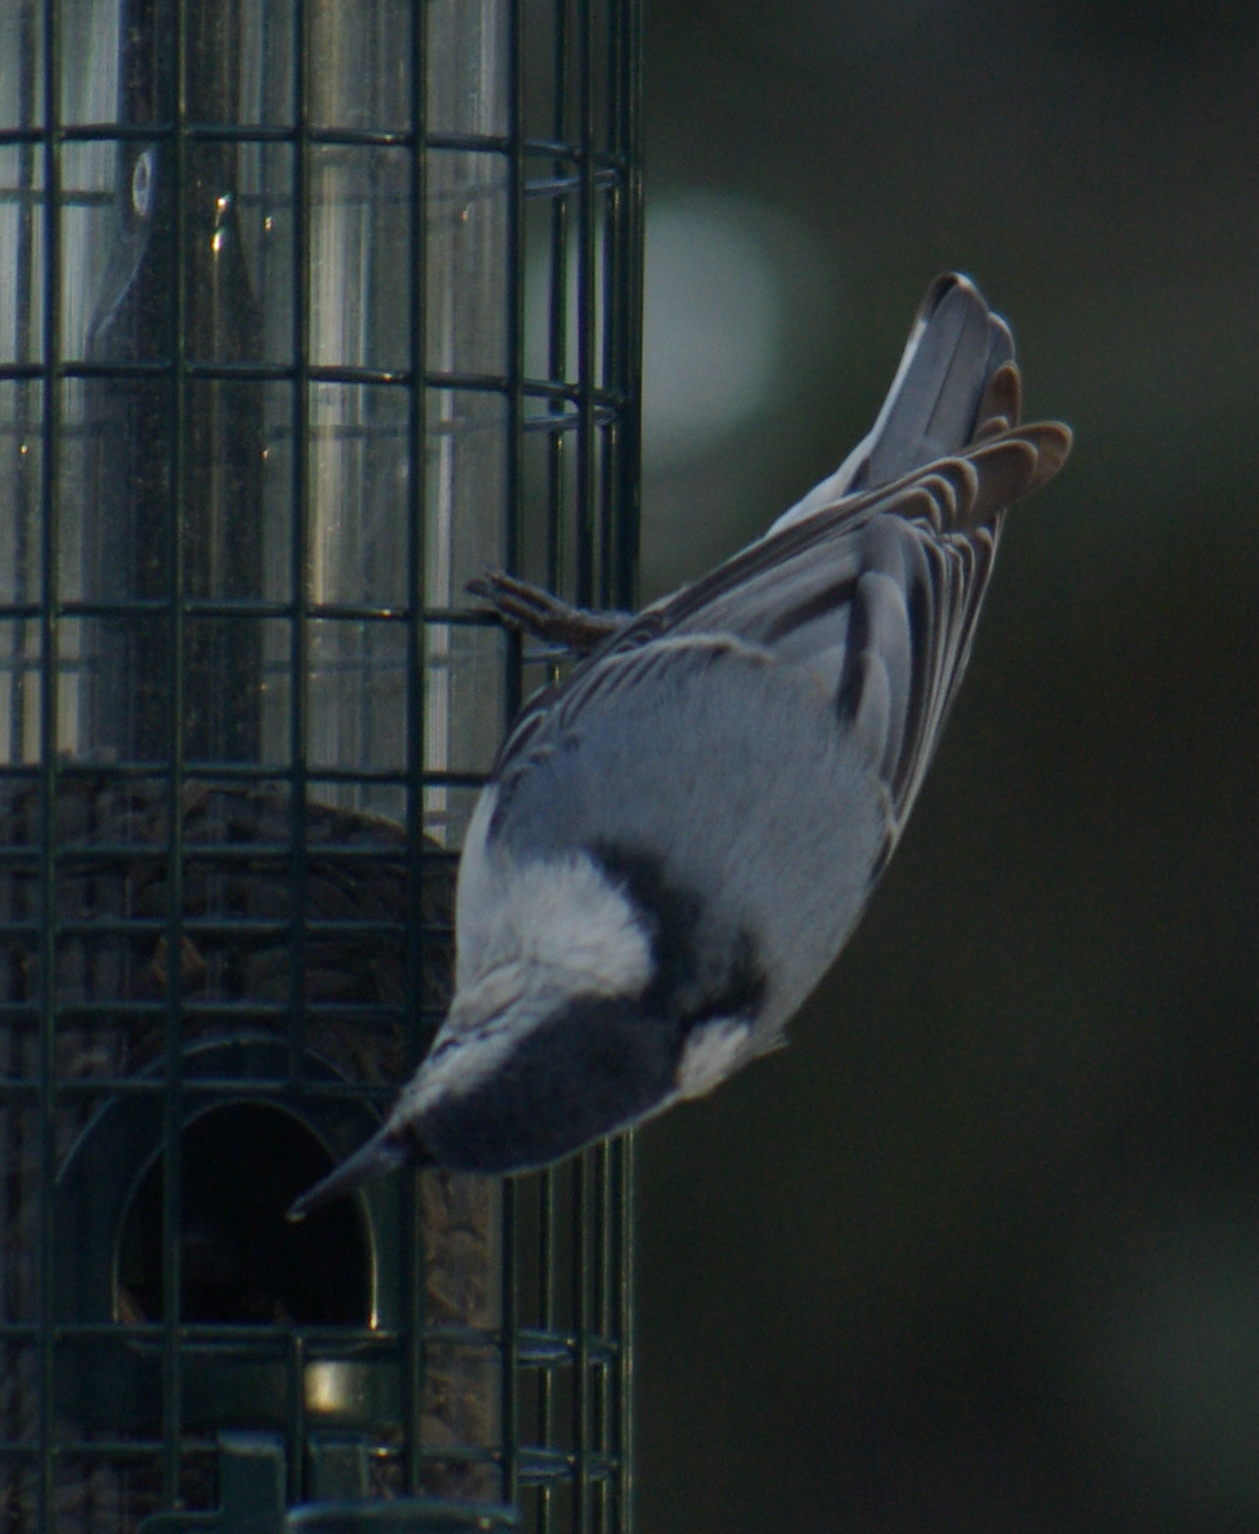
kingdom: Animalia
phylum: Chordata
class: Aves
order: Passeriformes
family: Sittidae
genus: Sitta
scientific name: Sitta carolinensis
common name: White-breasted nuthatch
